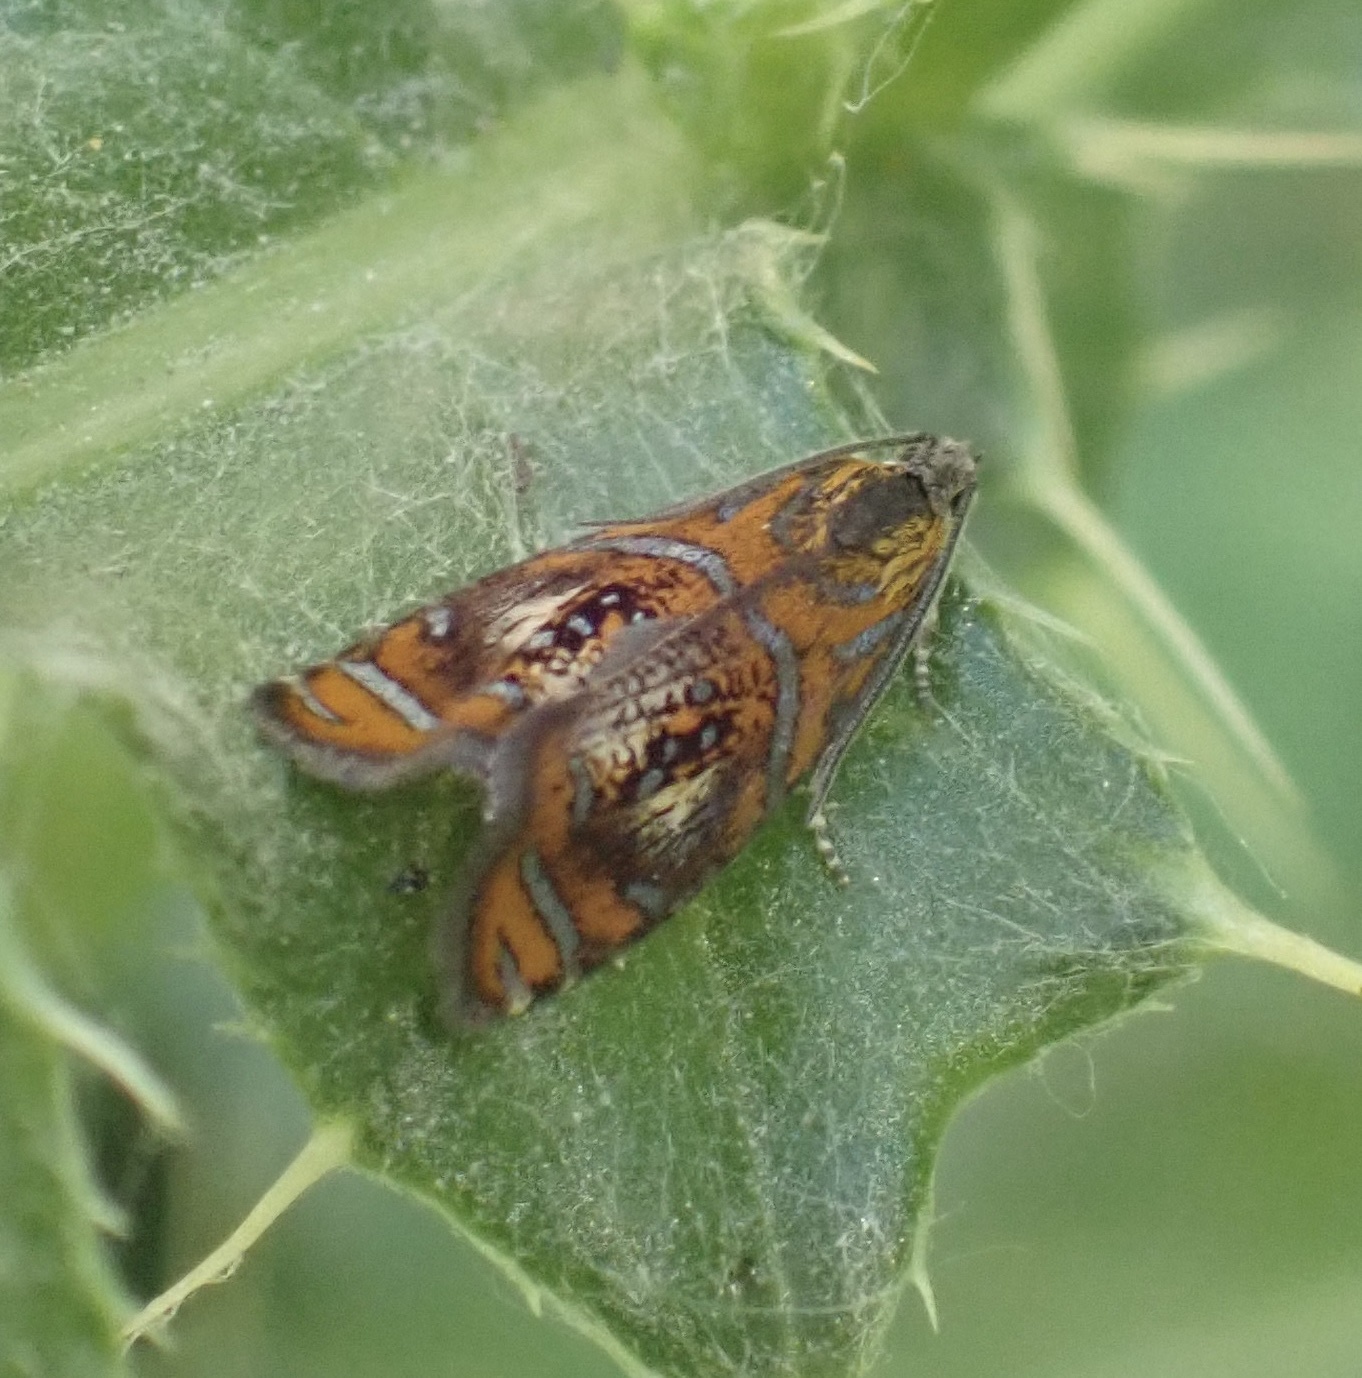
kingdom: Animalia
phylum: Arthropoda
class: Insecta
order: Lepidoptera
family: Tortricidae
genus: Olethreutes
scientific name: Olethreutes arcuella
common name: Arched marble
